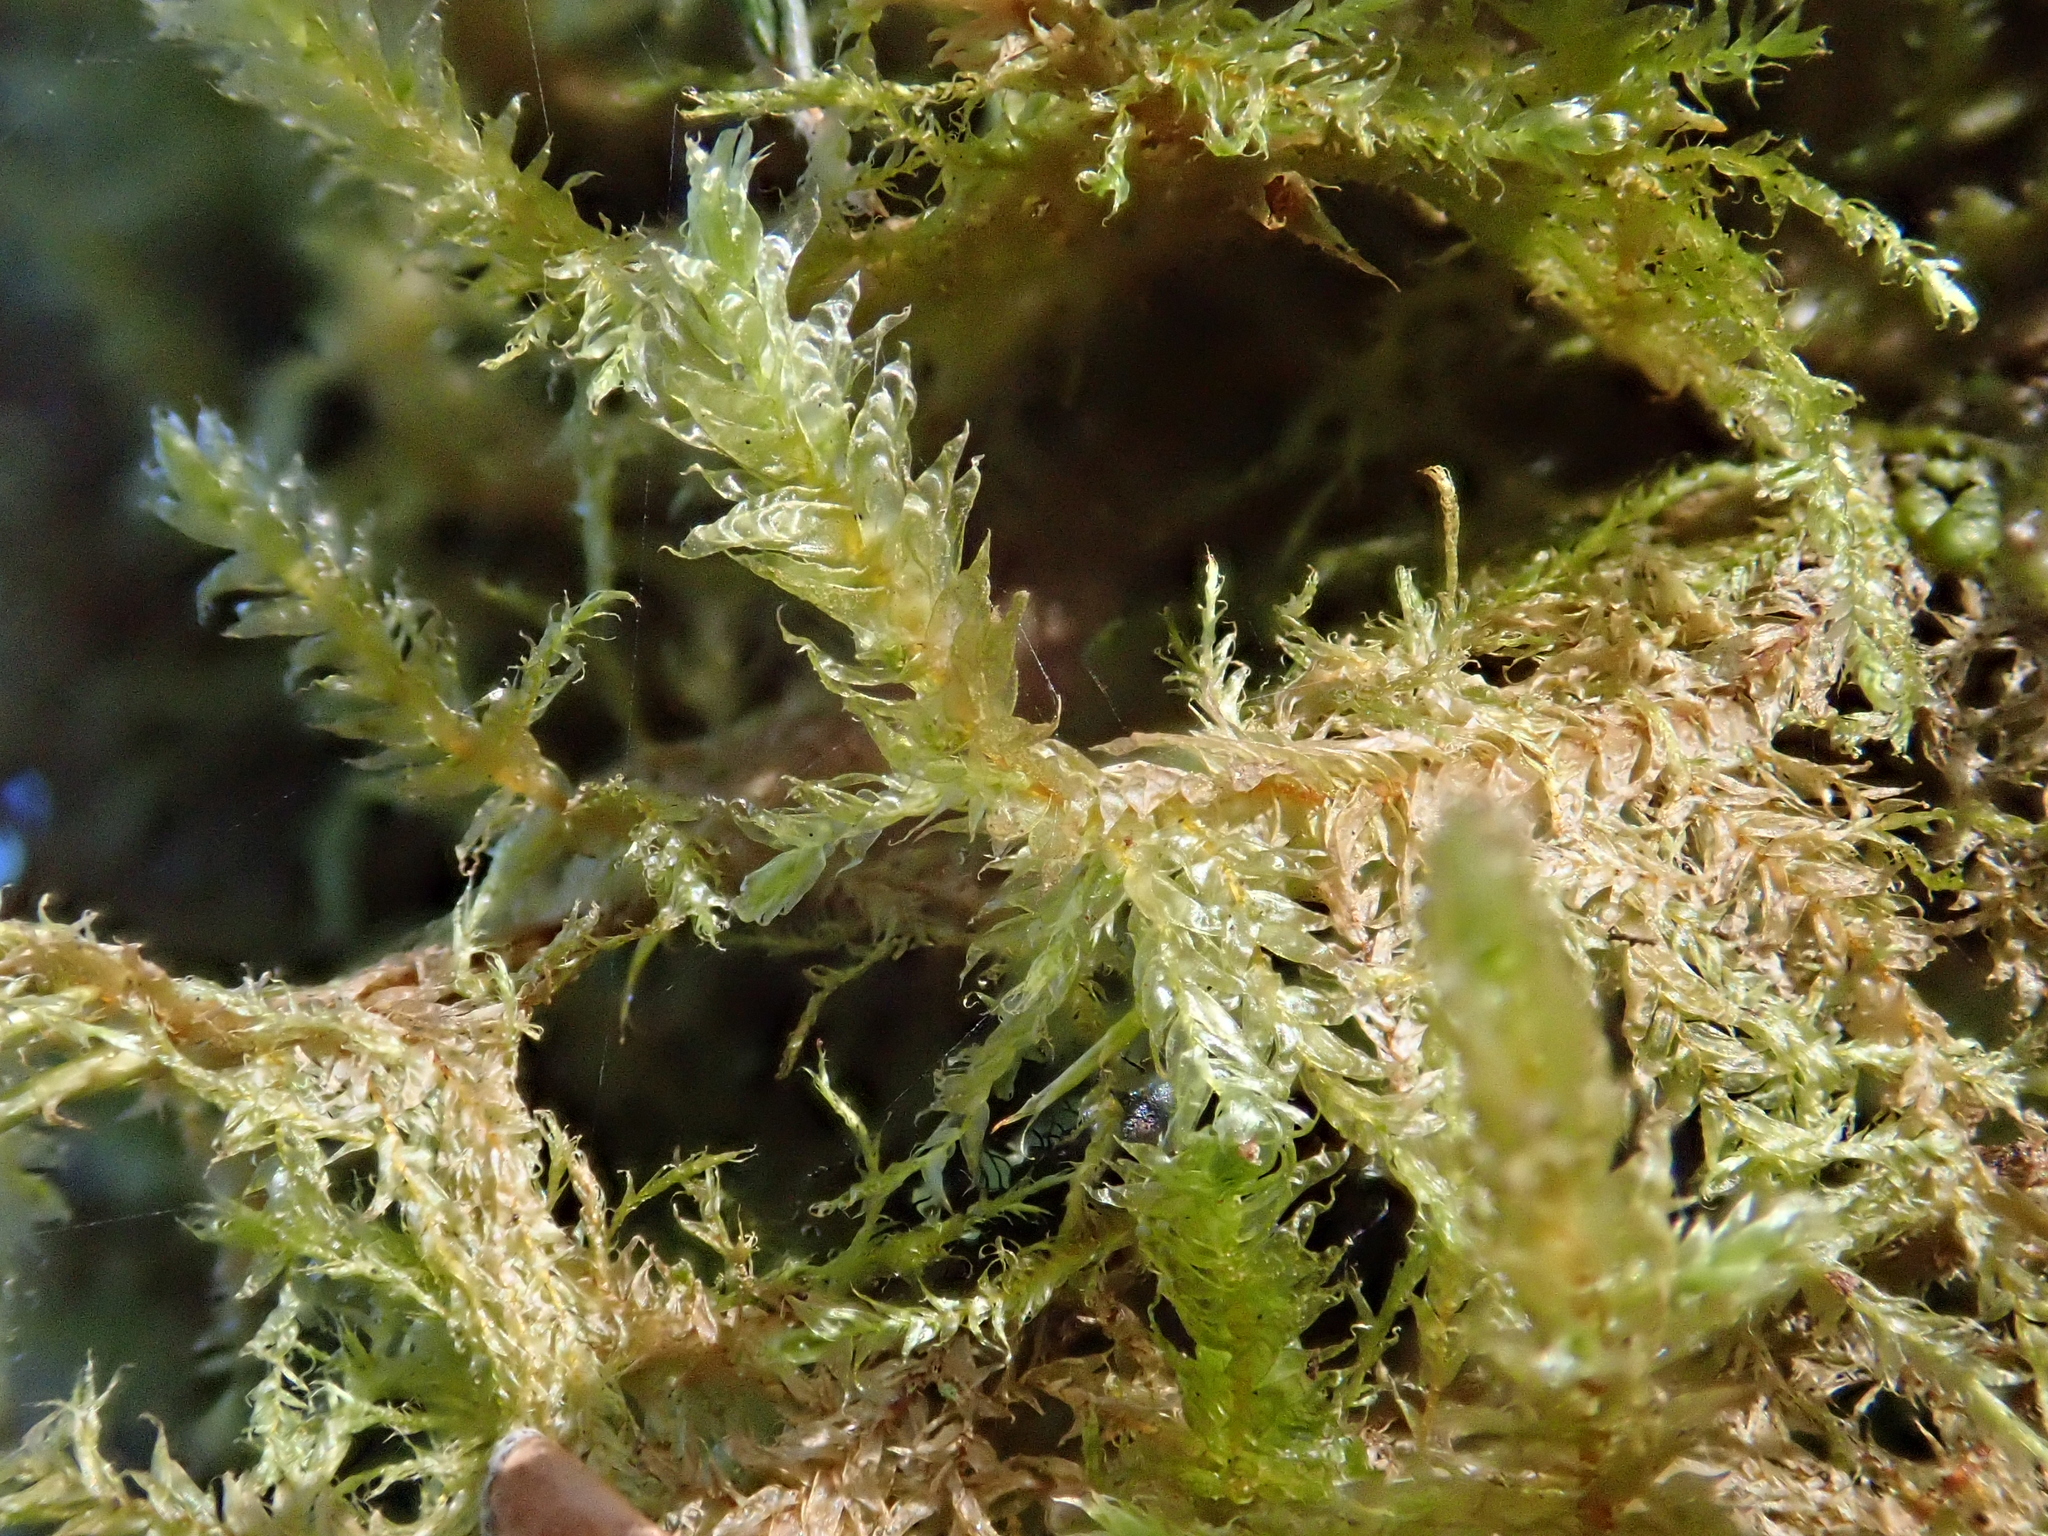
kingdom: Plantae
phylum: Bryophyta
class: Bryopsida
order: Hypnales
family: Neckeraceae
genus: Neckera
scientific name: Neckera cephalonica
